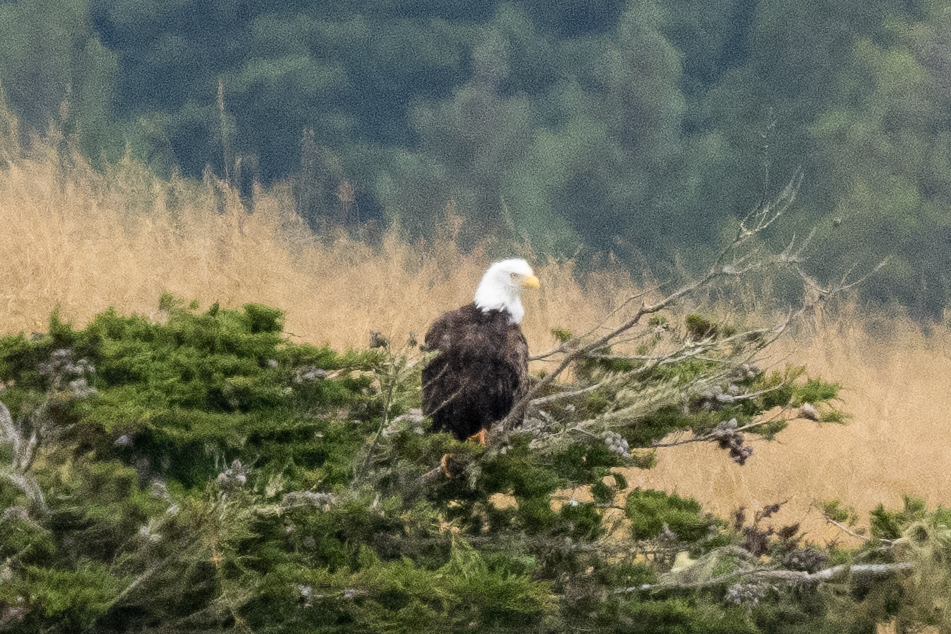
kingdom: Animalia
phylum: Chordata
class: Aves
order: Accipitriformes
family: Accipitridae
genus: Haliaeetus
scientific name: Haliaeetus leucocephalus
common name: Bald eagle
